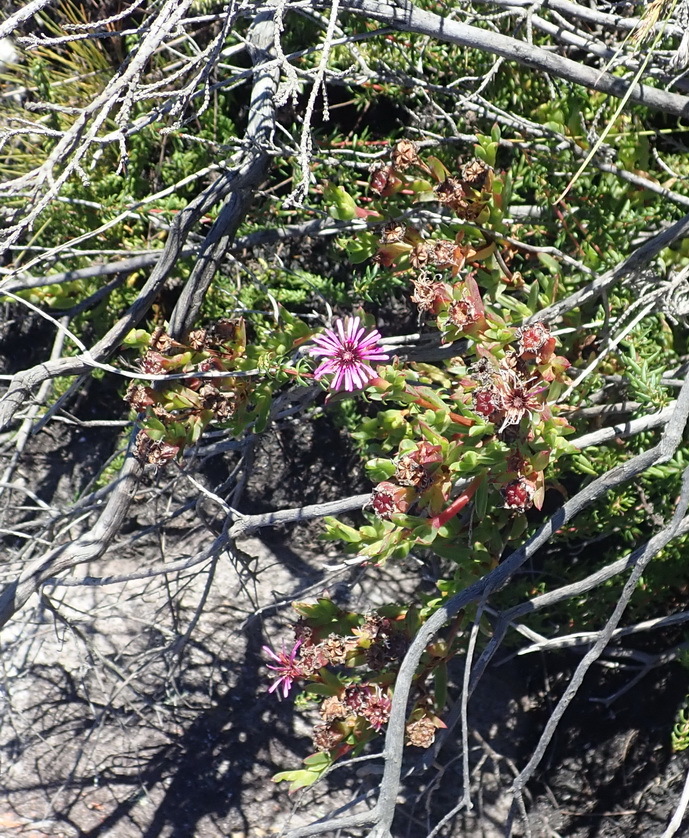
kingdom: Plantae
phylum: Tracheophyta
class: Magnoliopsida
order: Caryophyllales
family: Aizoaceae
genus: Erepsia
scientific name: Erepsia pentagona
